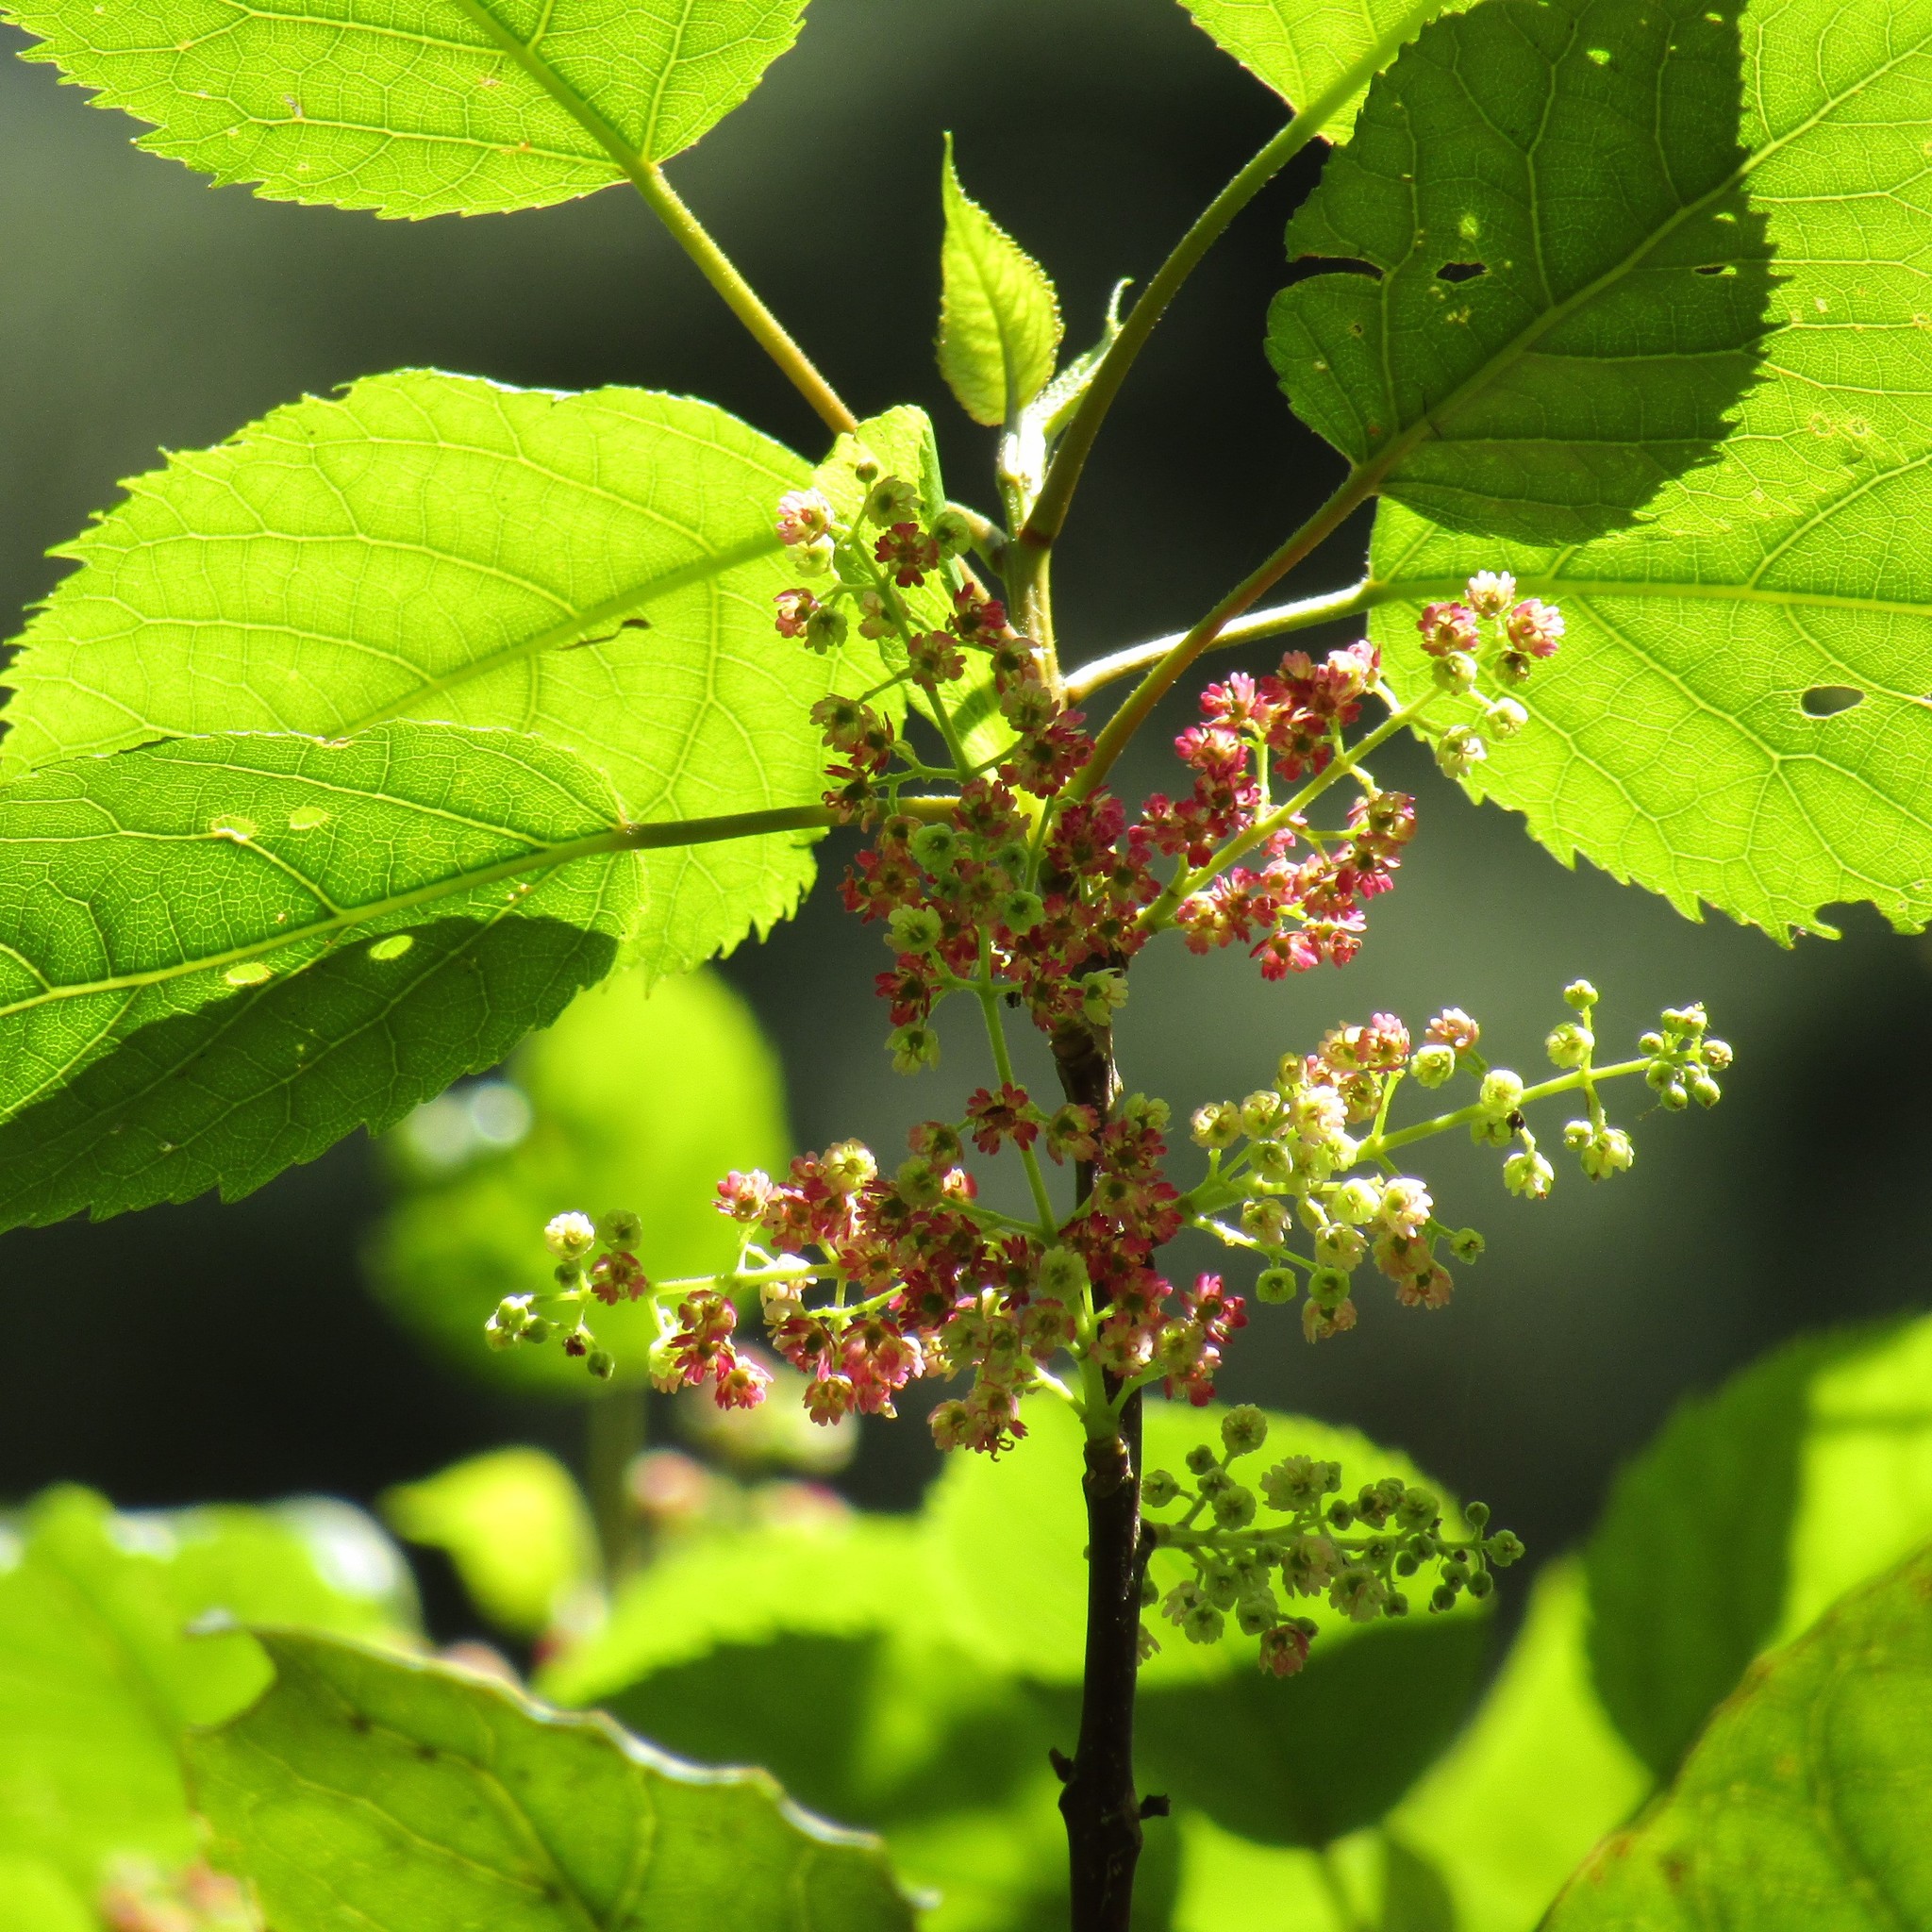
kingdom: Plantae
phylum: Tracheophyta
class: Magnoliopsida
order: Oxalidales
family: Elaeocarpaceae
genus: Aristotelia
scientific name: Aristotelia serrata
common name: New zealand wineberry
